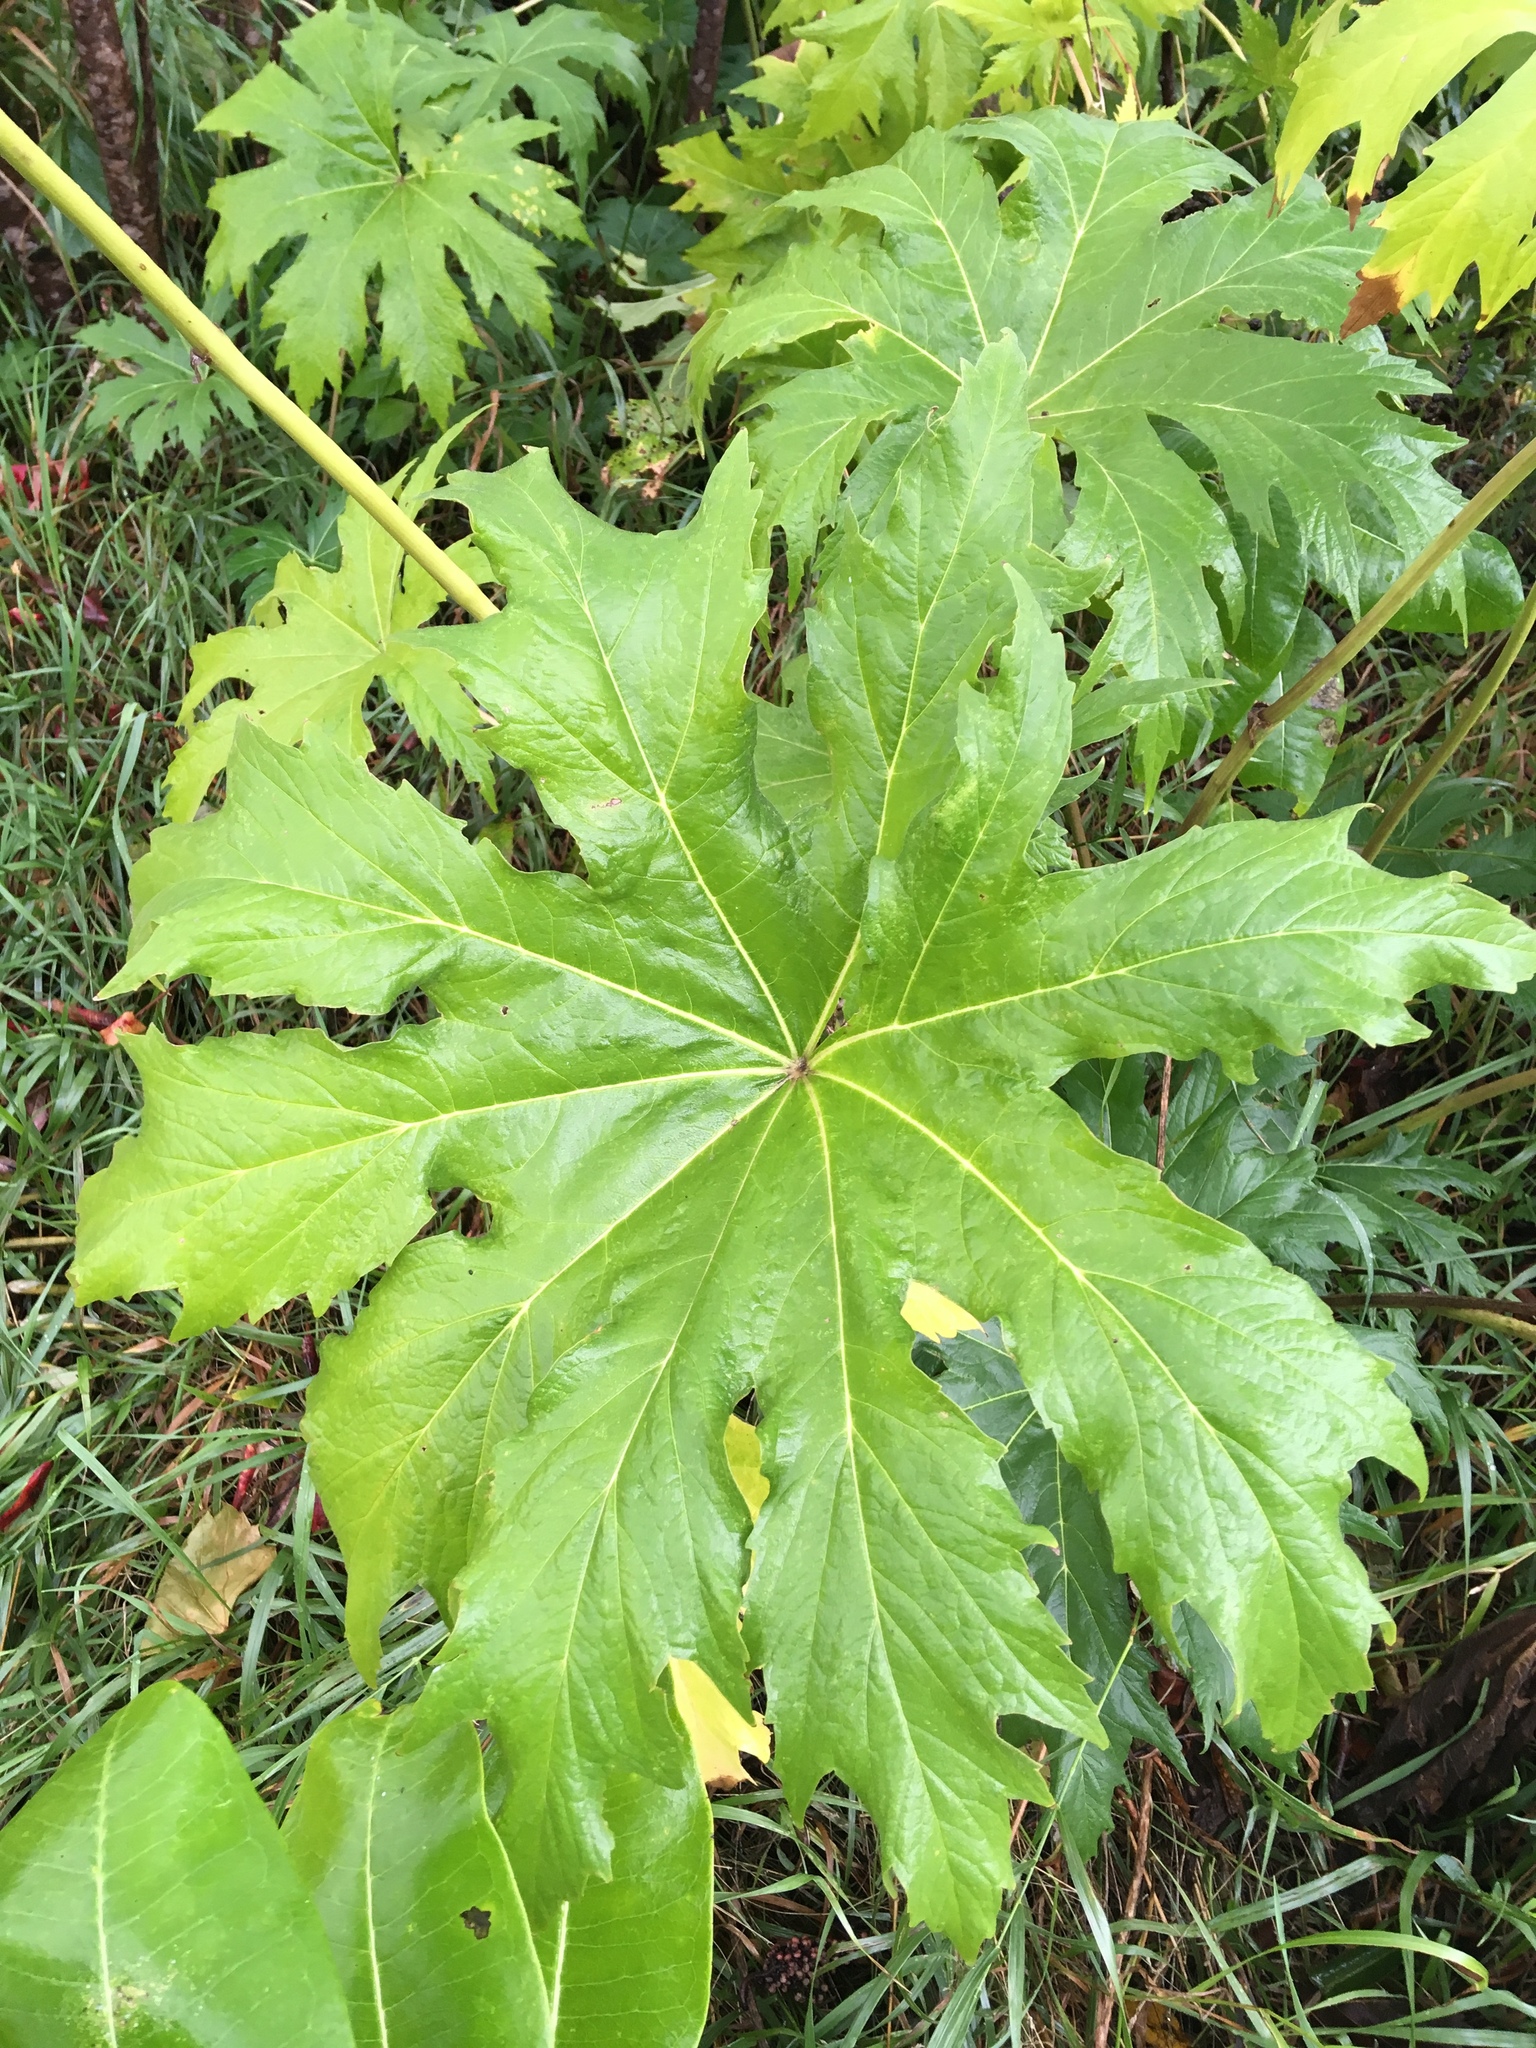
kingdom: Plantae
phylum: Tracheophyta
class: Magnoliopsida
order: Malvales
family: Malvaceae
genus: Napaea
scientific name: Napaea dioica
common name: Glade-mallow
